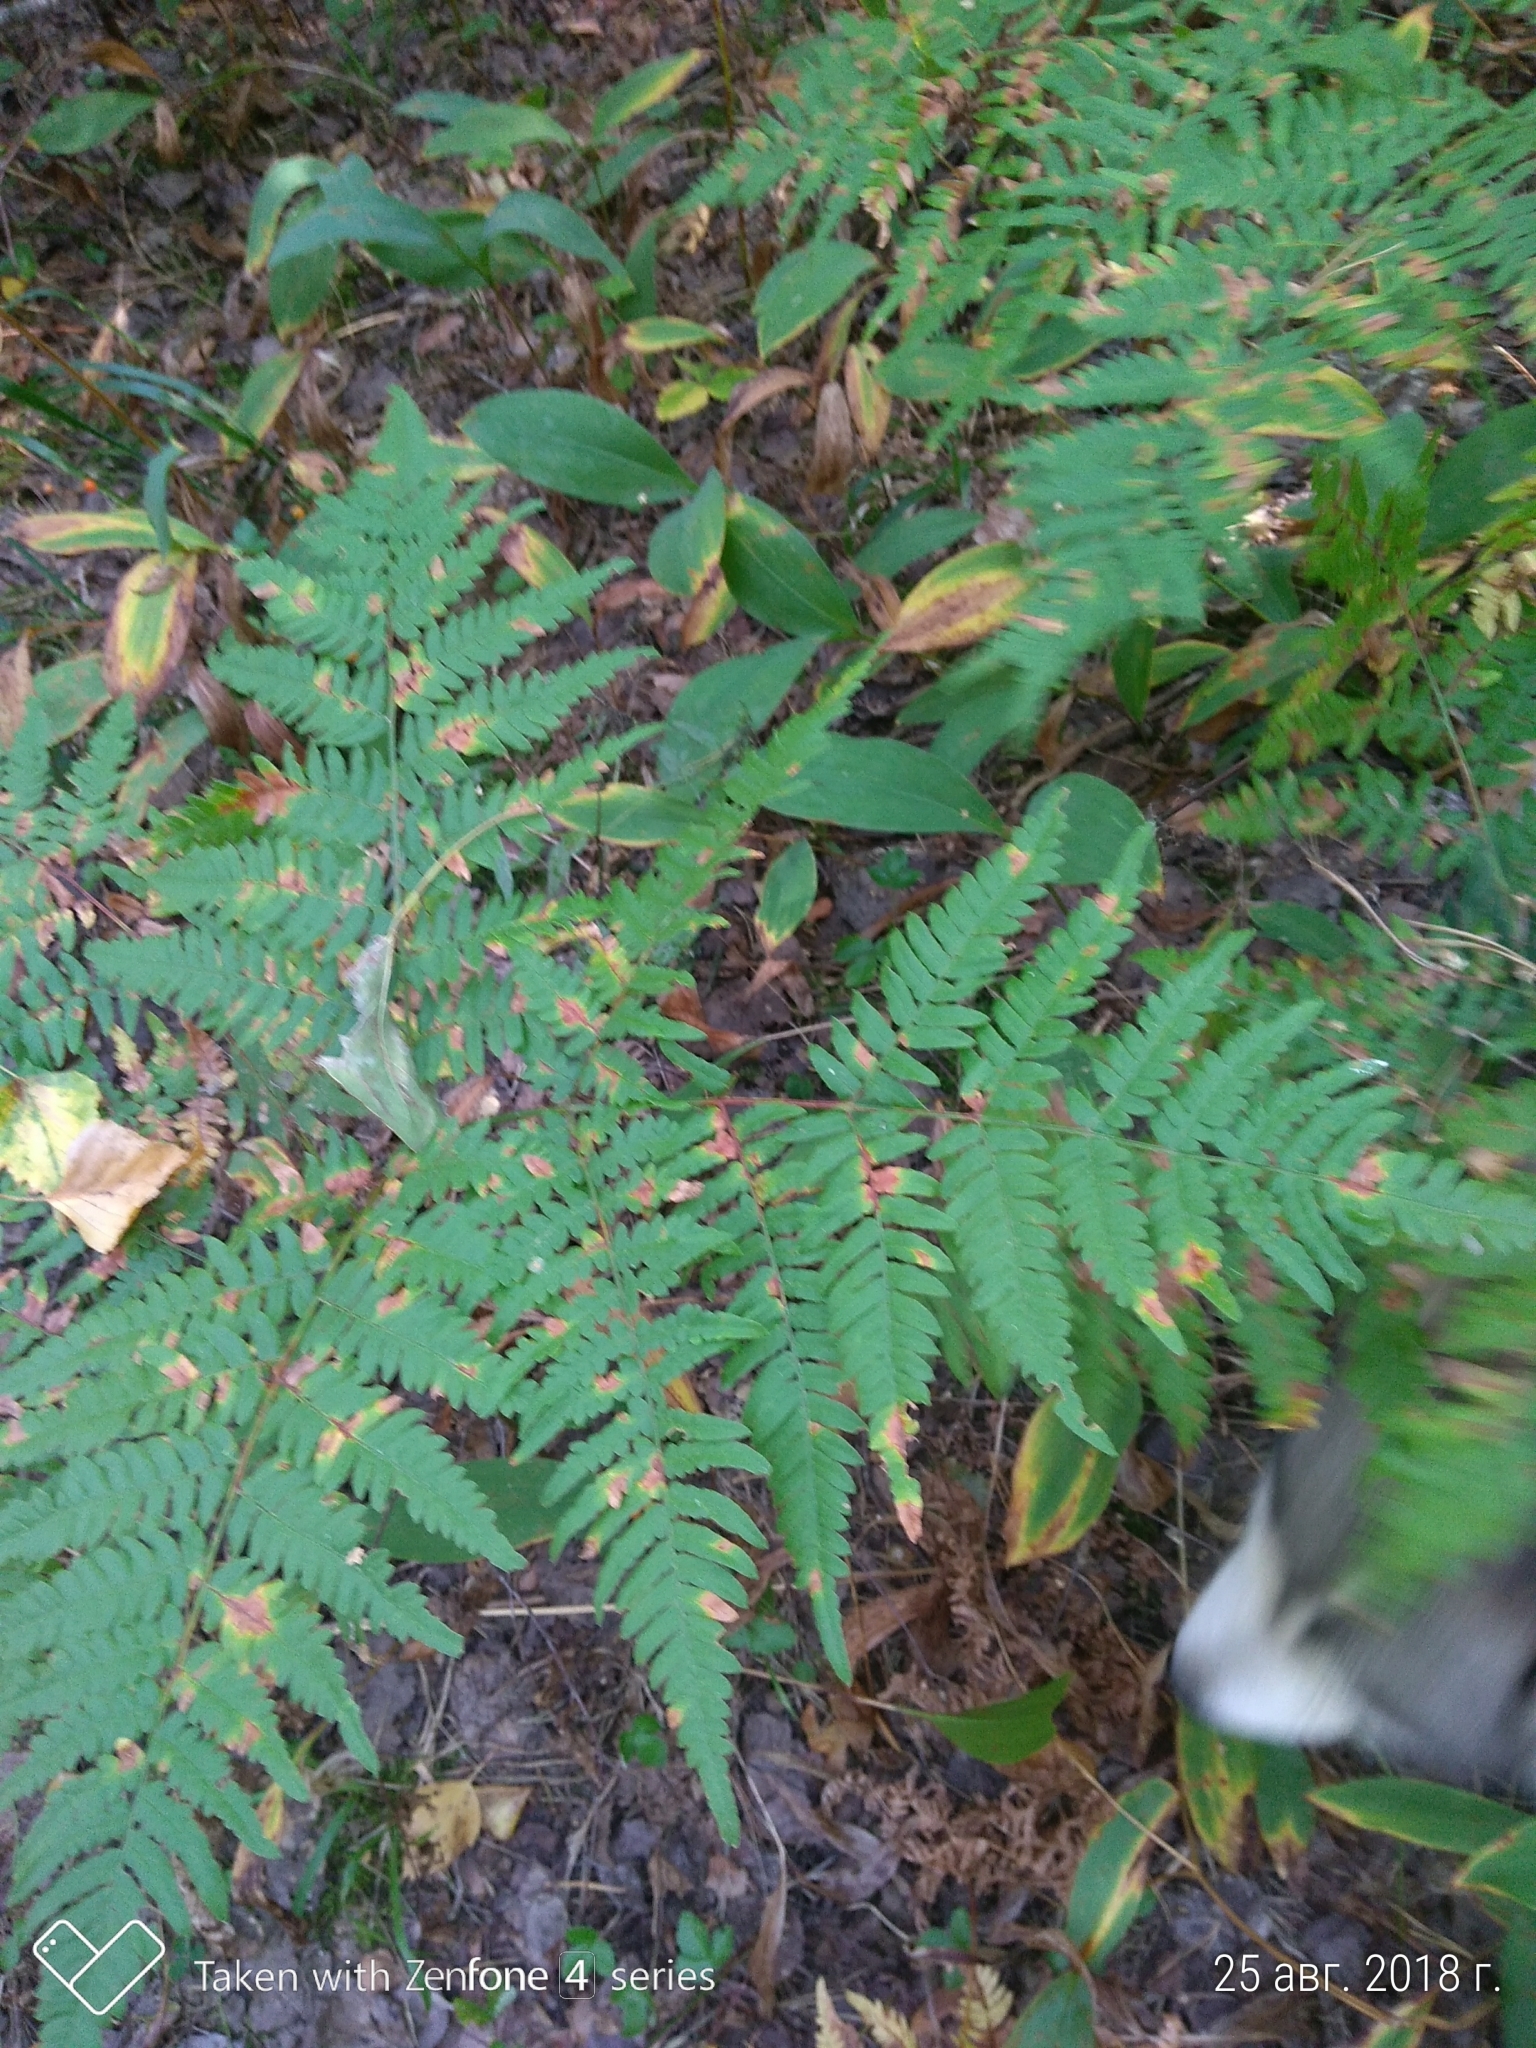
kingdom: Plantae
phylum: Tracheophyta
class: Polypodiopsida
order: Polypodiales
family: Dennstaedtiaceae
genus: Pteridium
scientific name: Pteridium aquilinum
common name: Bracken
